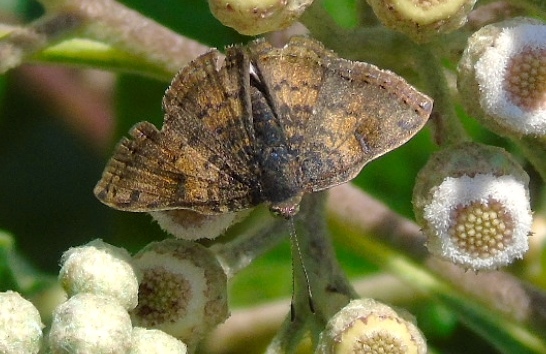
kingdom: Animalia
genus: Caria
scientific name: Caria ino
